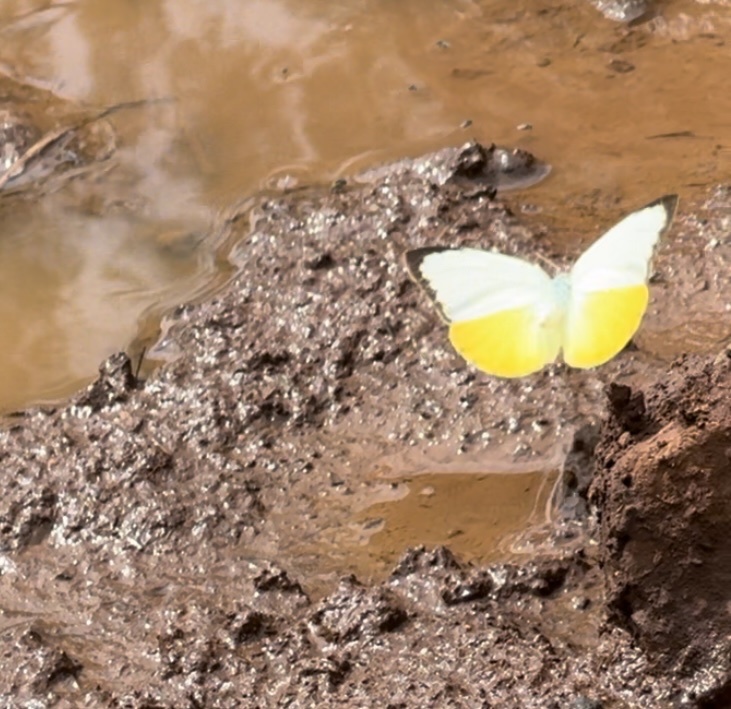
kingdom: Animalia
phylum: Arthropoda
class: Insecta
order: Lepidoptera
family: Pieridae
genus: Catopsilia
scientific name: Catopsilia scylla
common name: Orange emigrant
